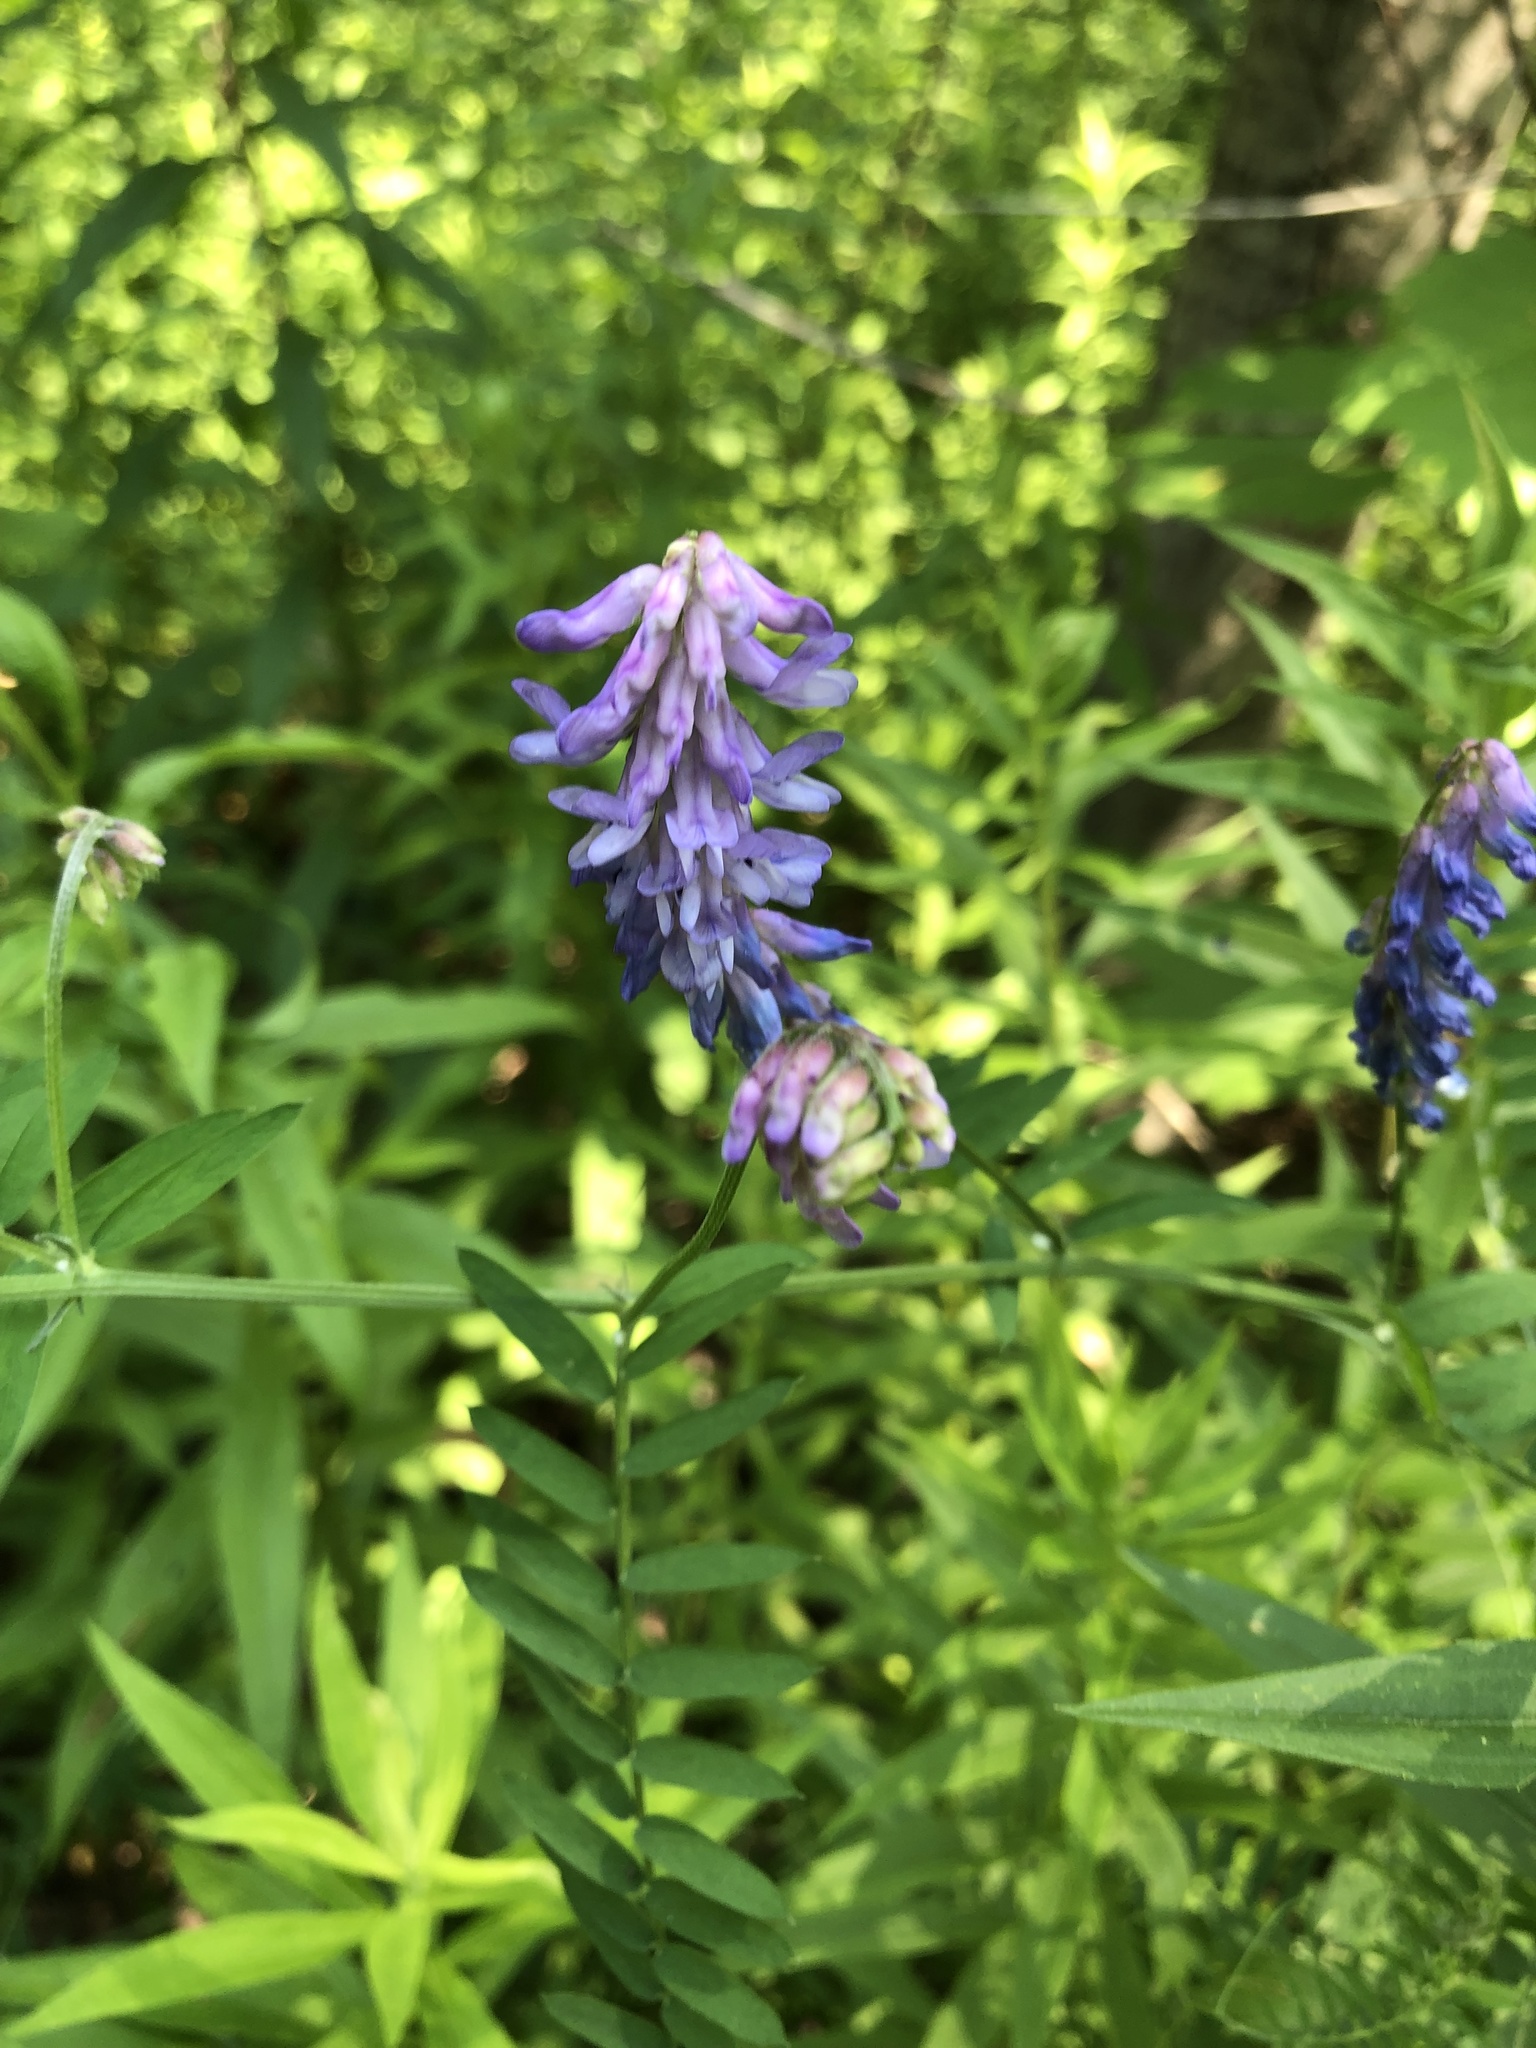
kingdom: Plantae
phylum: Tracheophyta
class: Magnoliopsida
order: Fabales
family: Fabaceae
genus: Vicia
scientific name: Vicia cracca
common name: Bird vetch
